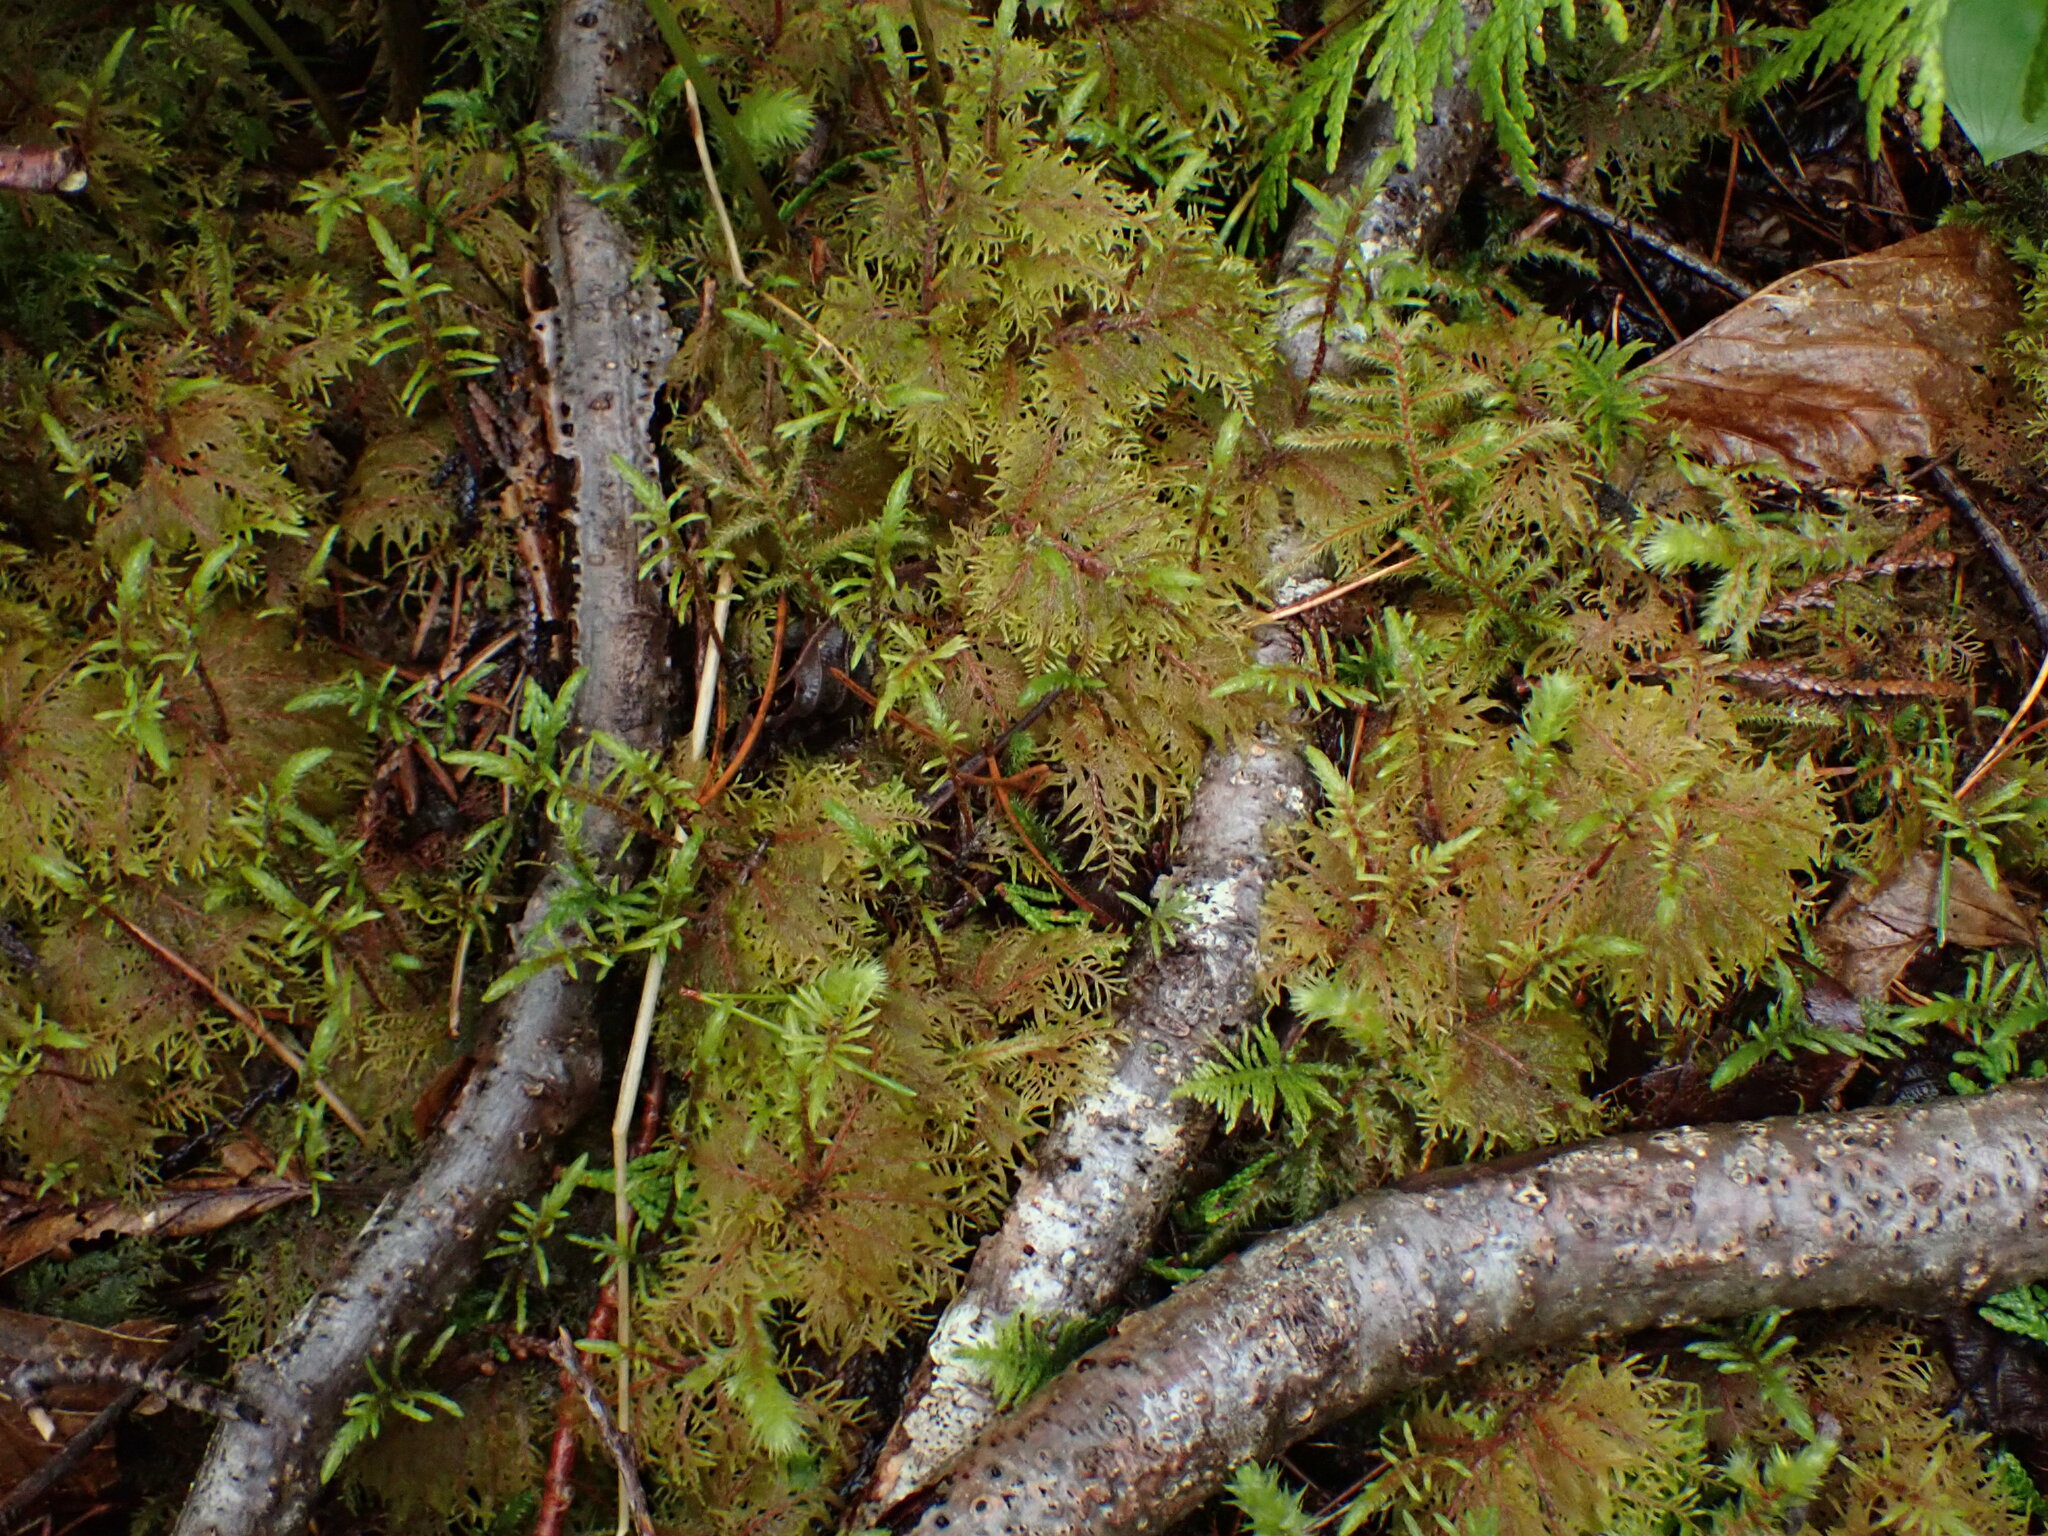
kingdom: Plantae
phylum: Bryophyta
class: Bryopsida
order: Hypnales
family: Hylocomiaceae
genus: Hylocomium
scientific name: Hylocomium splendens
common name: Stairstep moss
